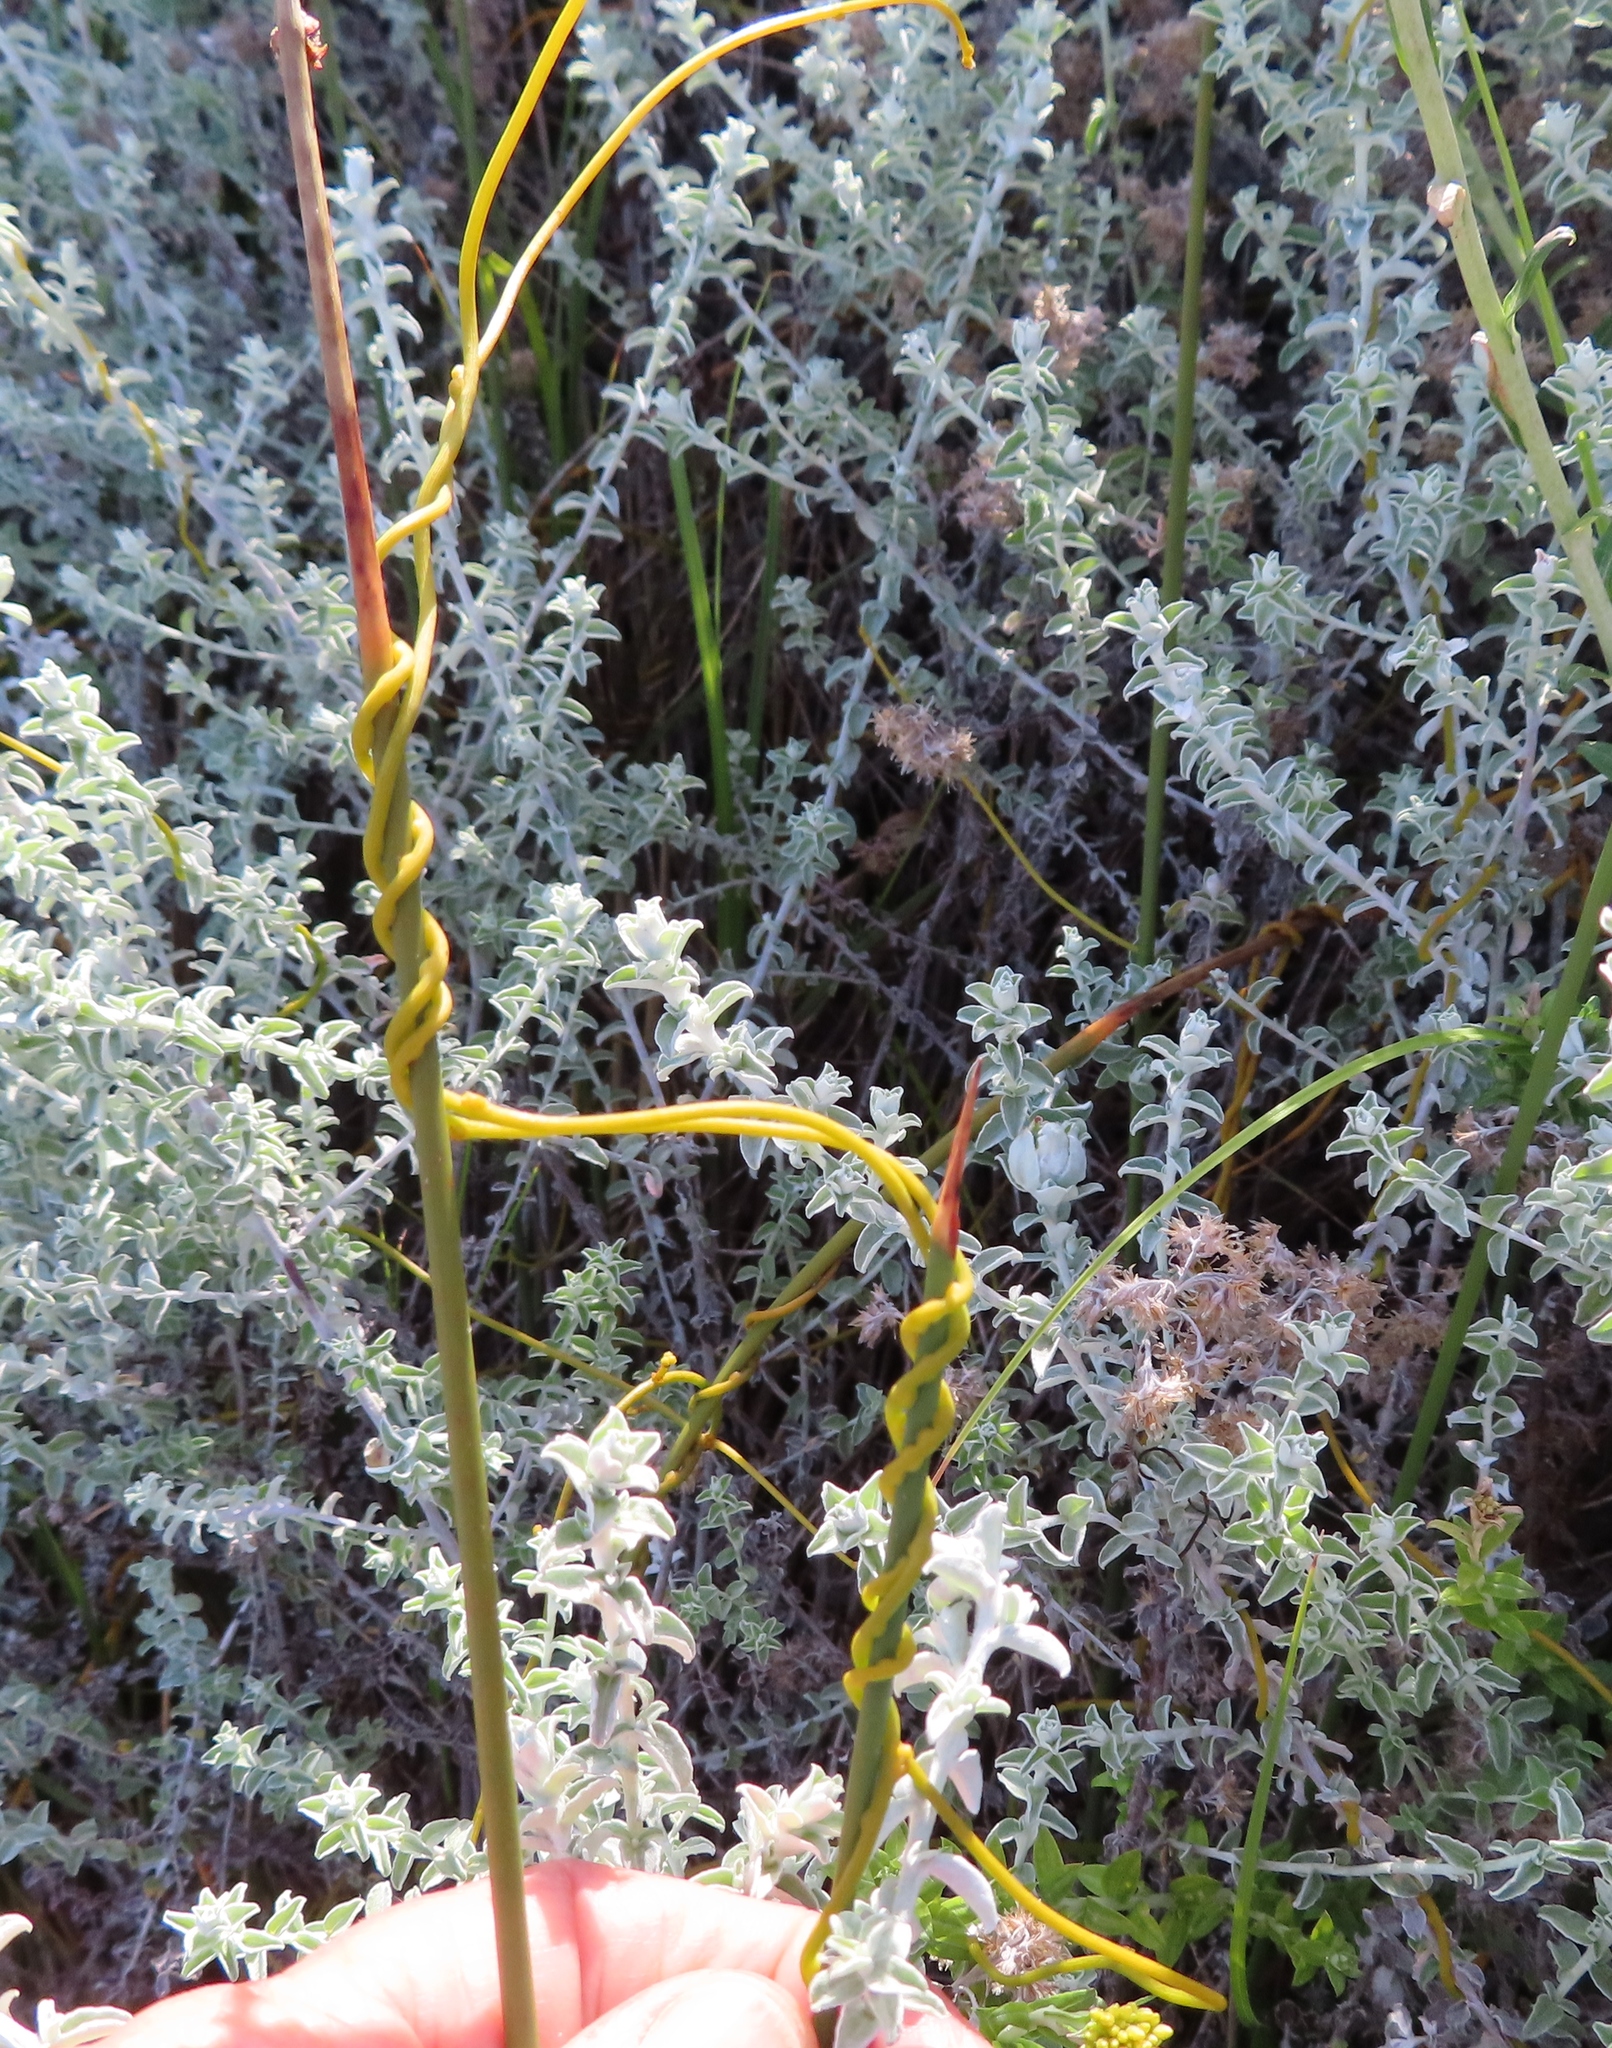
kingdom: Plantae
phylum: Tracheophyta
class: Magnoliopsida
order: Laurales
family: Lauraceae
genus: Cassytha
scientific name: Cassytha ciliolata
